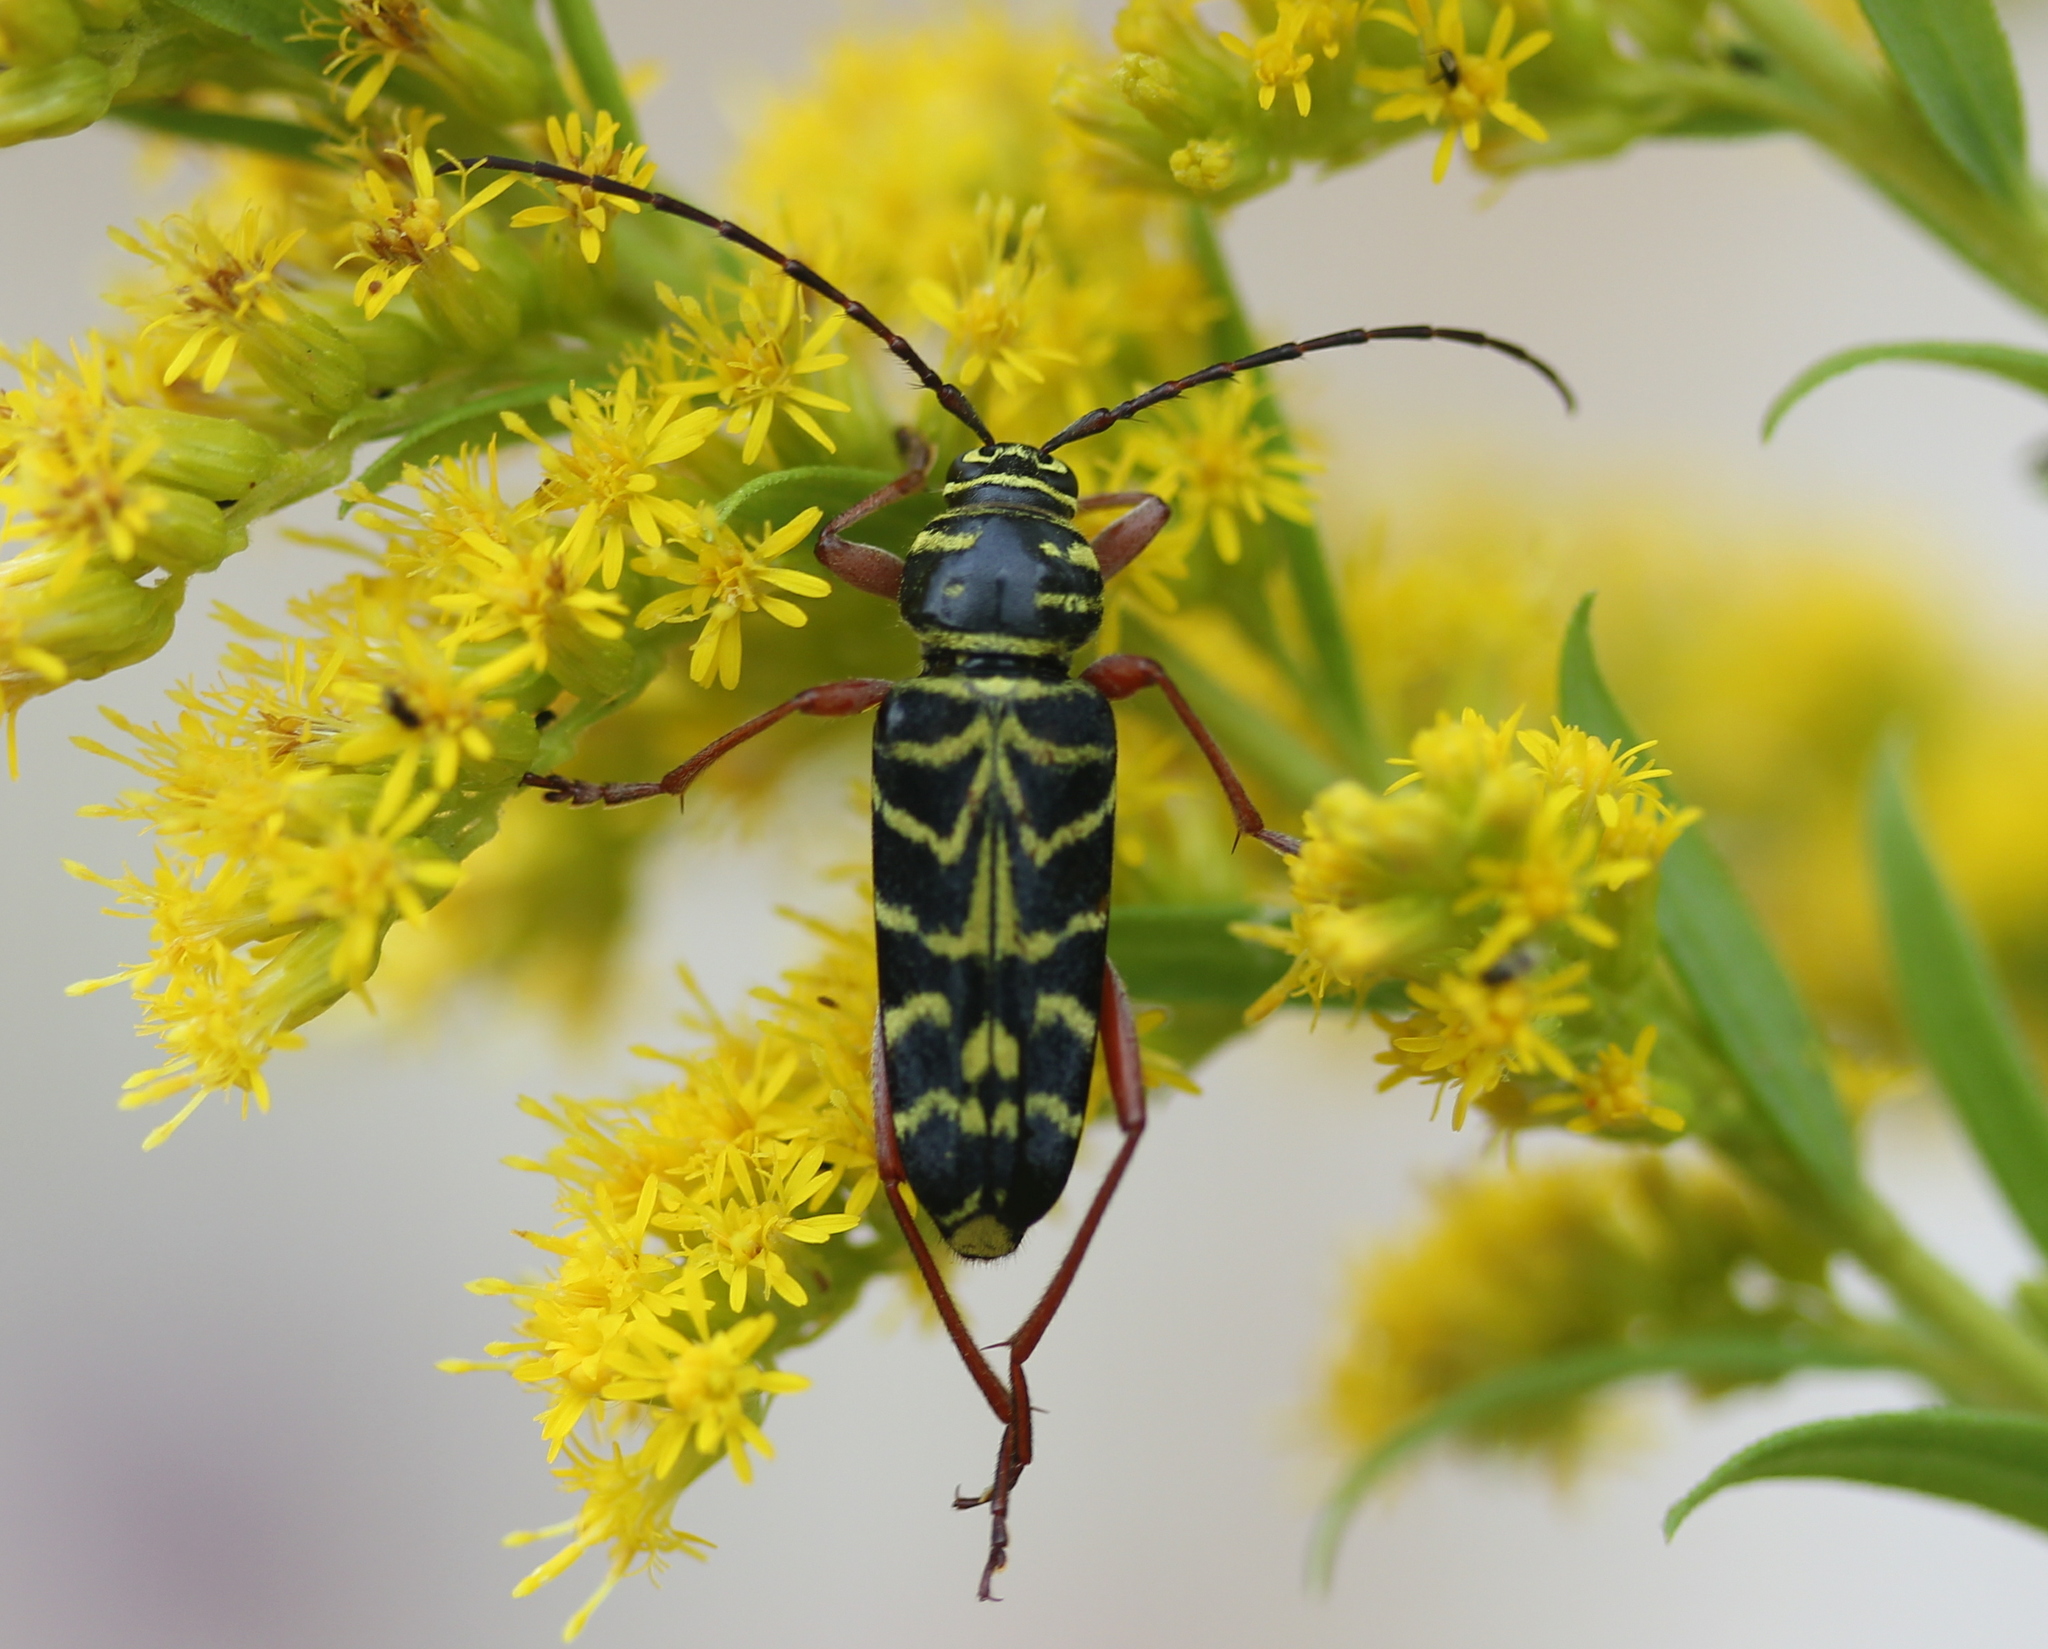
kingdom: Animalia
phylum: Arthropoda
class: Insecta
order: Coleoptera
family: Cerambycidae
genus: Megacyllene
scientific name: Megacyllene robiniae
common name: Locust borer
